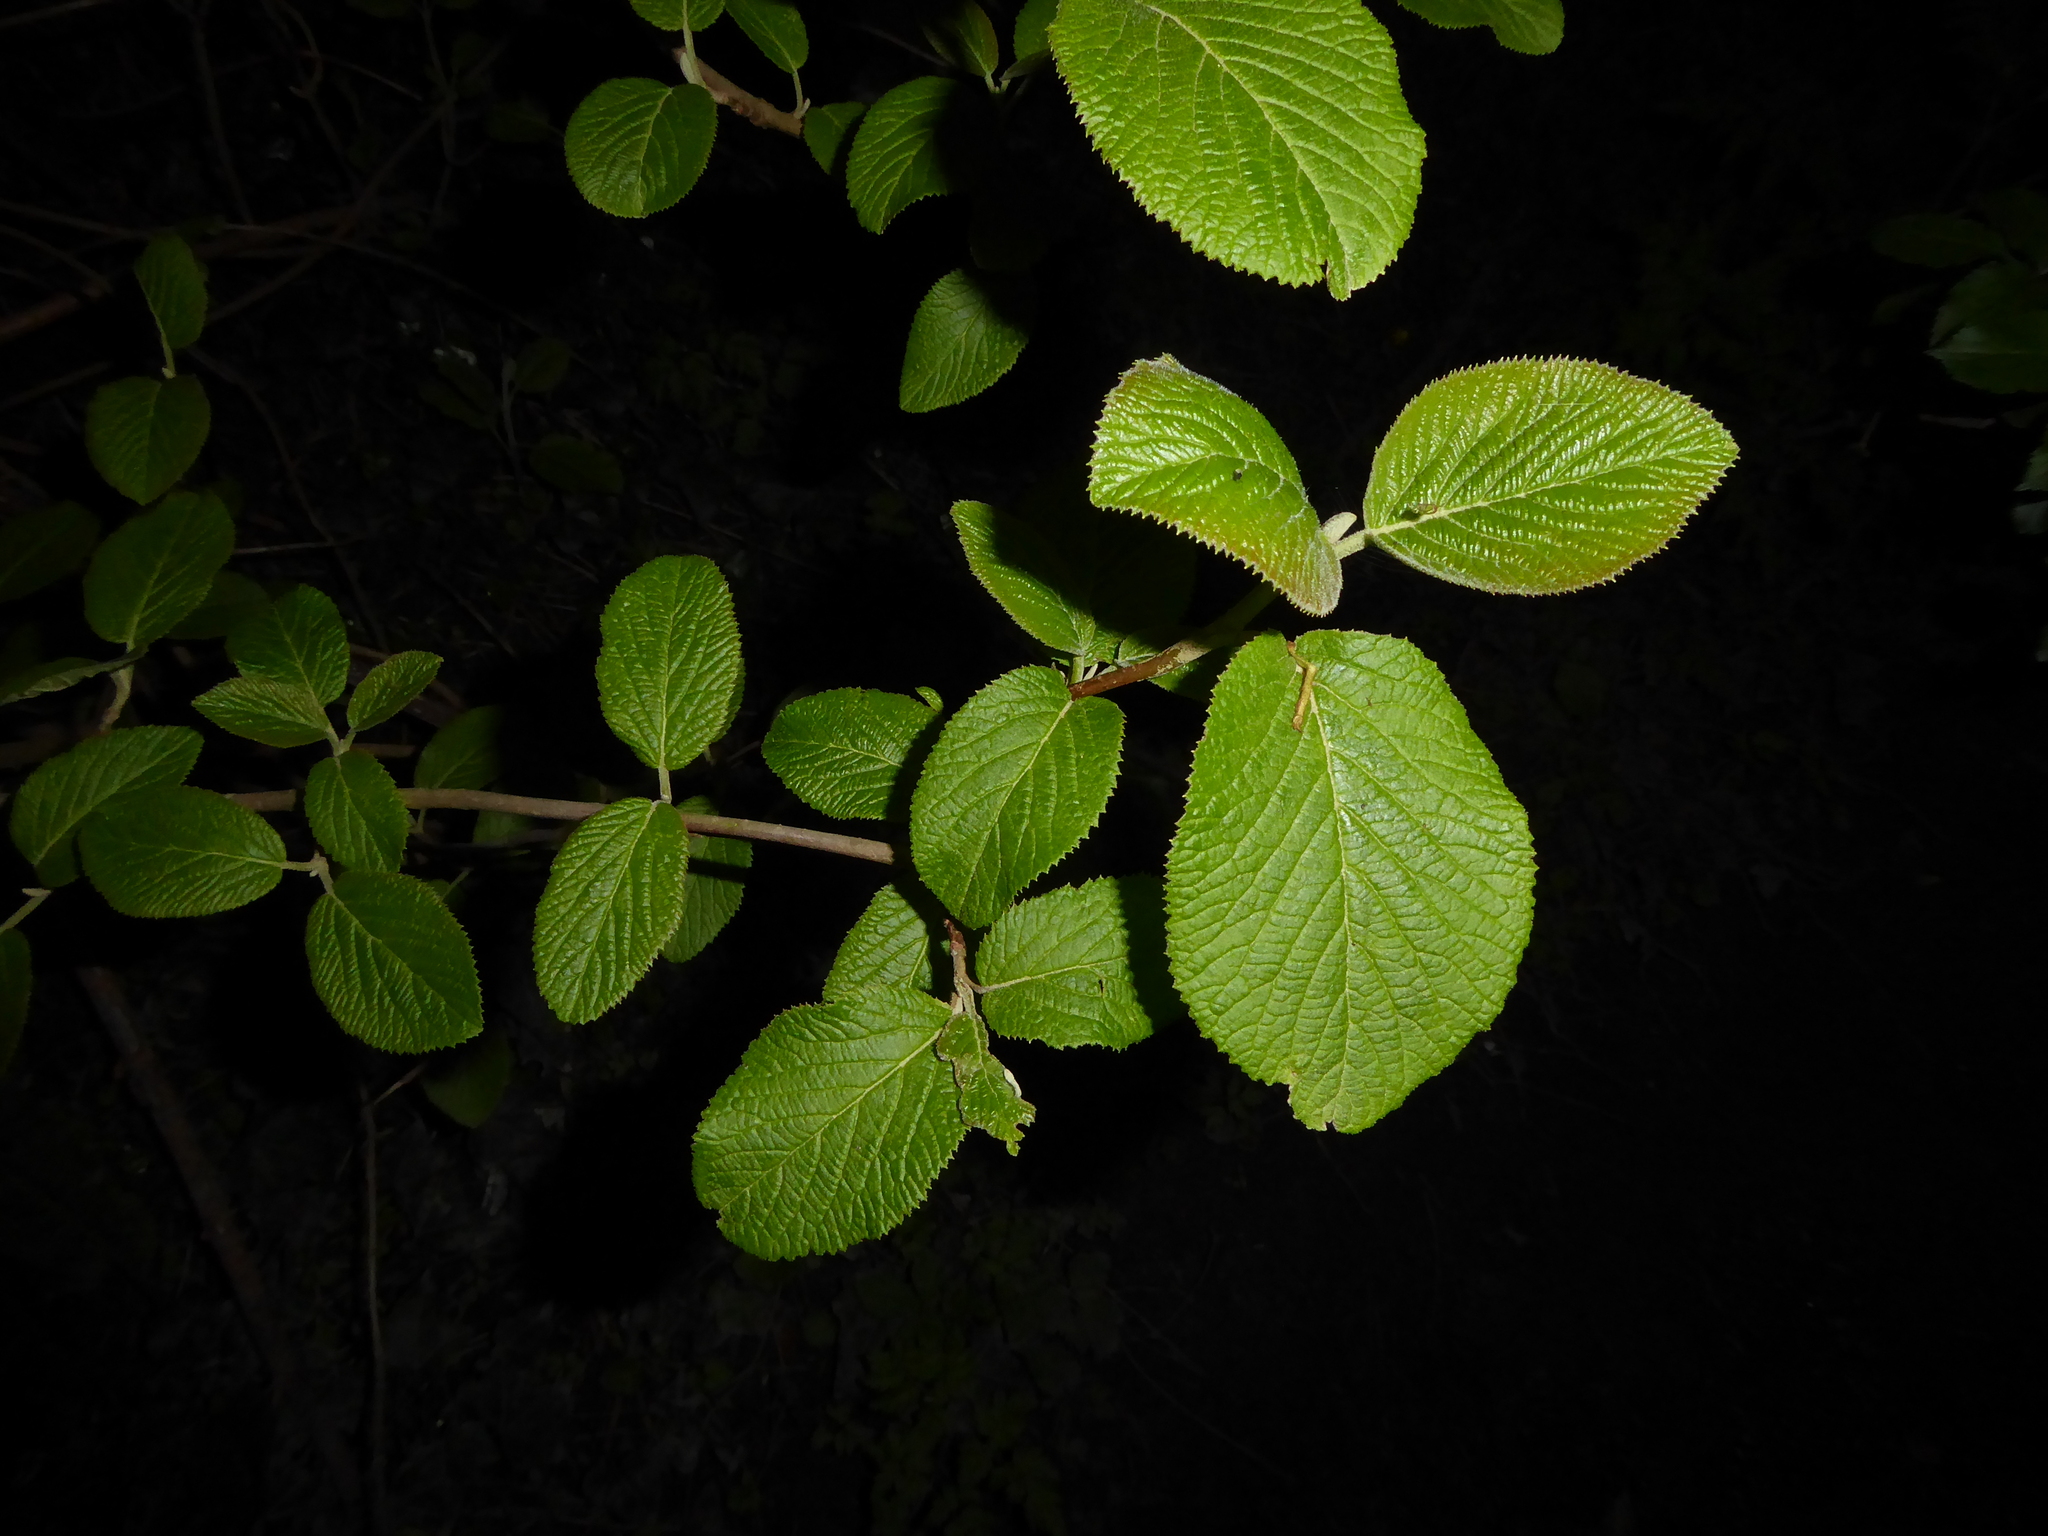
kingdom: Plantae
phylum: Tracheophyta
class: Magnoliopsida
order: Dipsacales
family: Viburnaceae
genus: Viburnum
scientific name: Viburnum lantana
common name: Wayfaring tree
